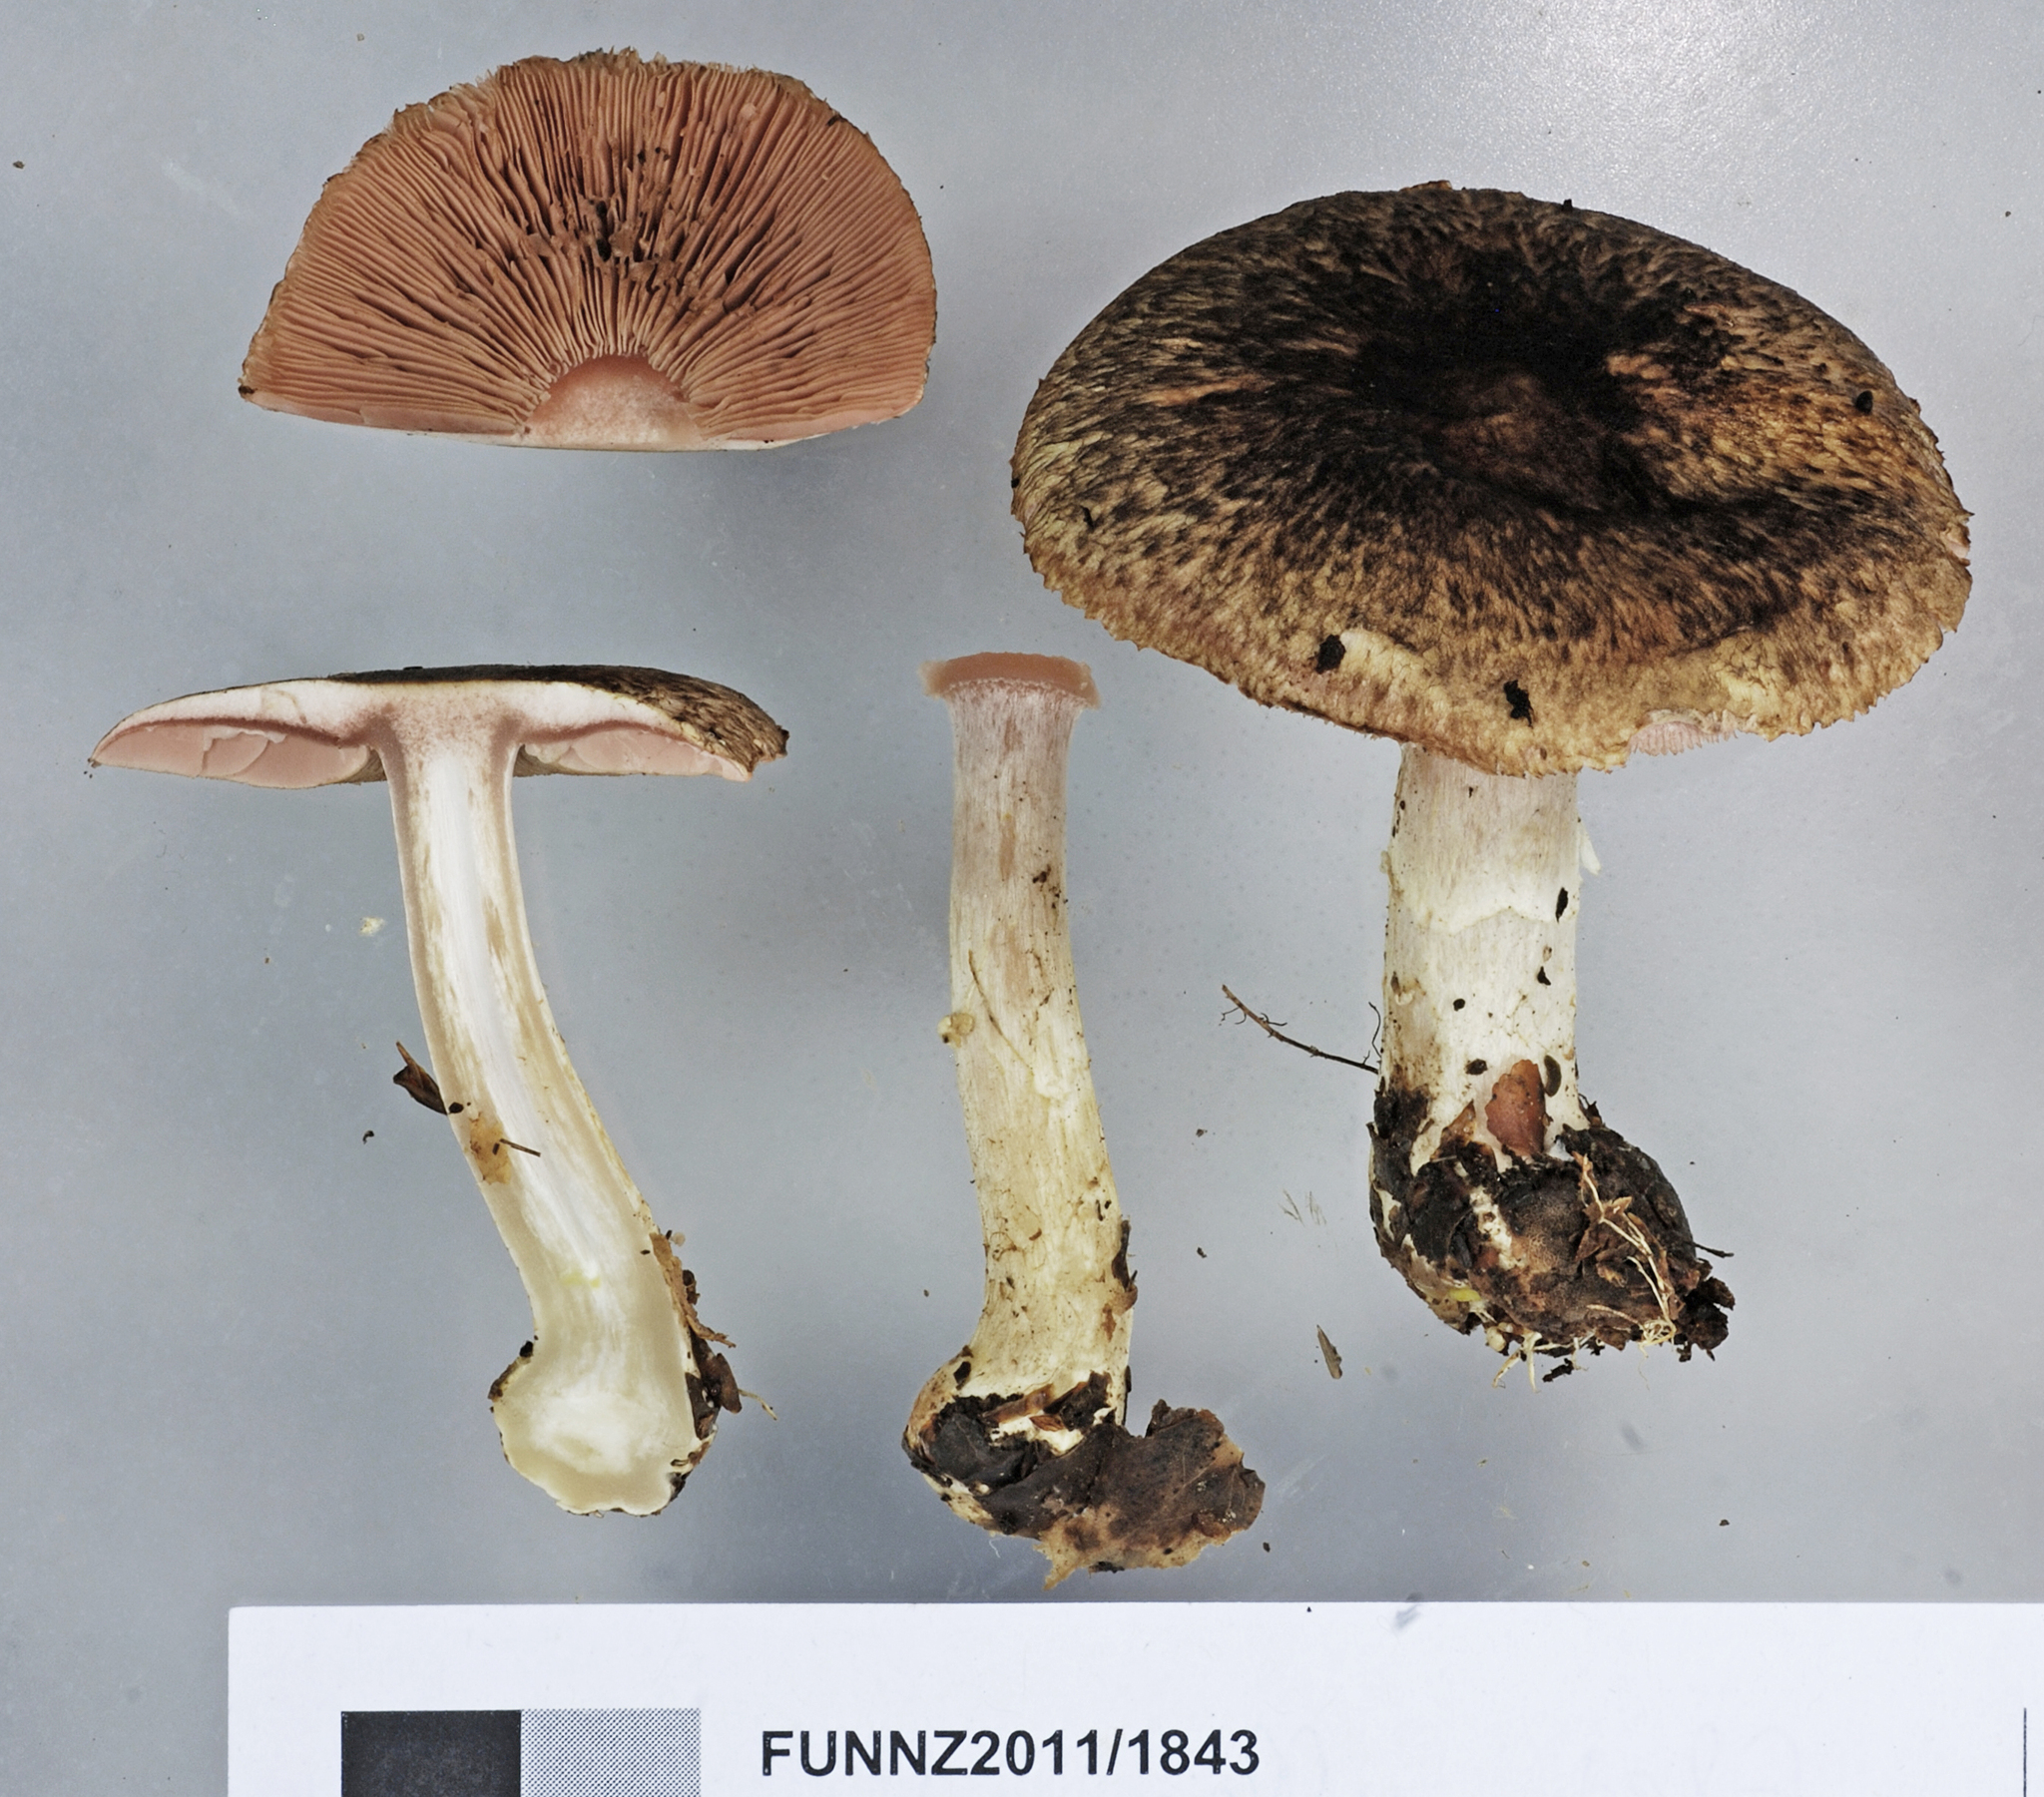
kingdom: Fungi
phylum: Basidiomycota
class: Agaricomycetes
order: Agaricales
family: Agaricaceae
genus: Agaricus
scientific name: Agaricus viridopurpurascens
